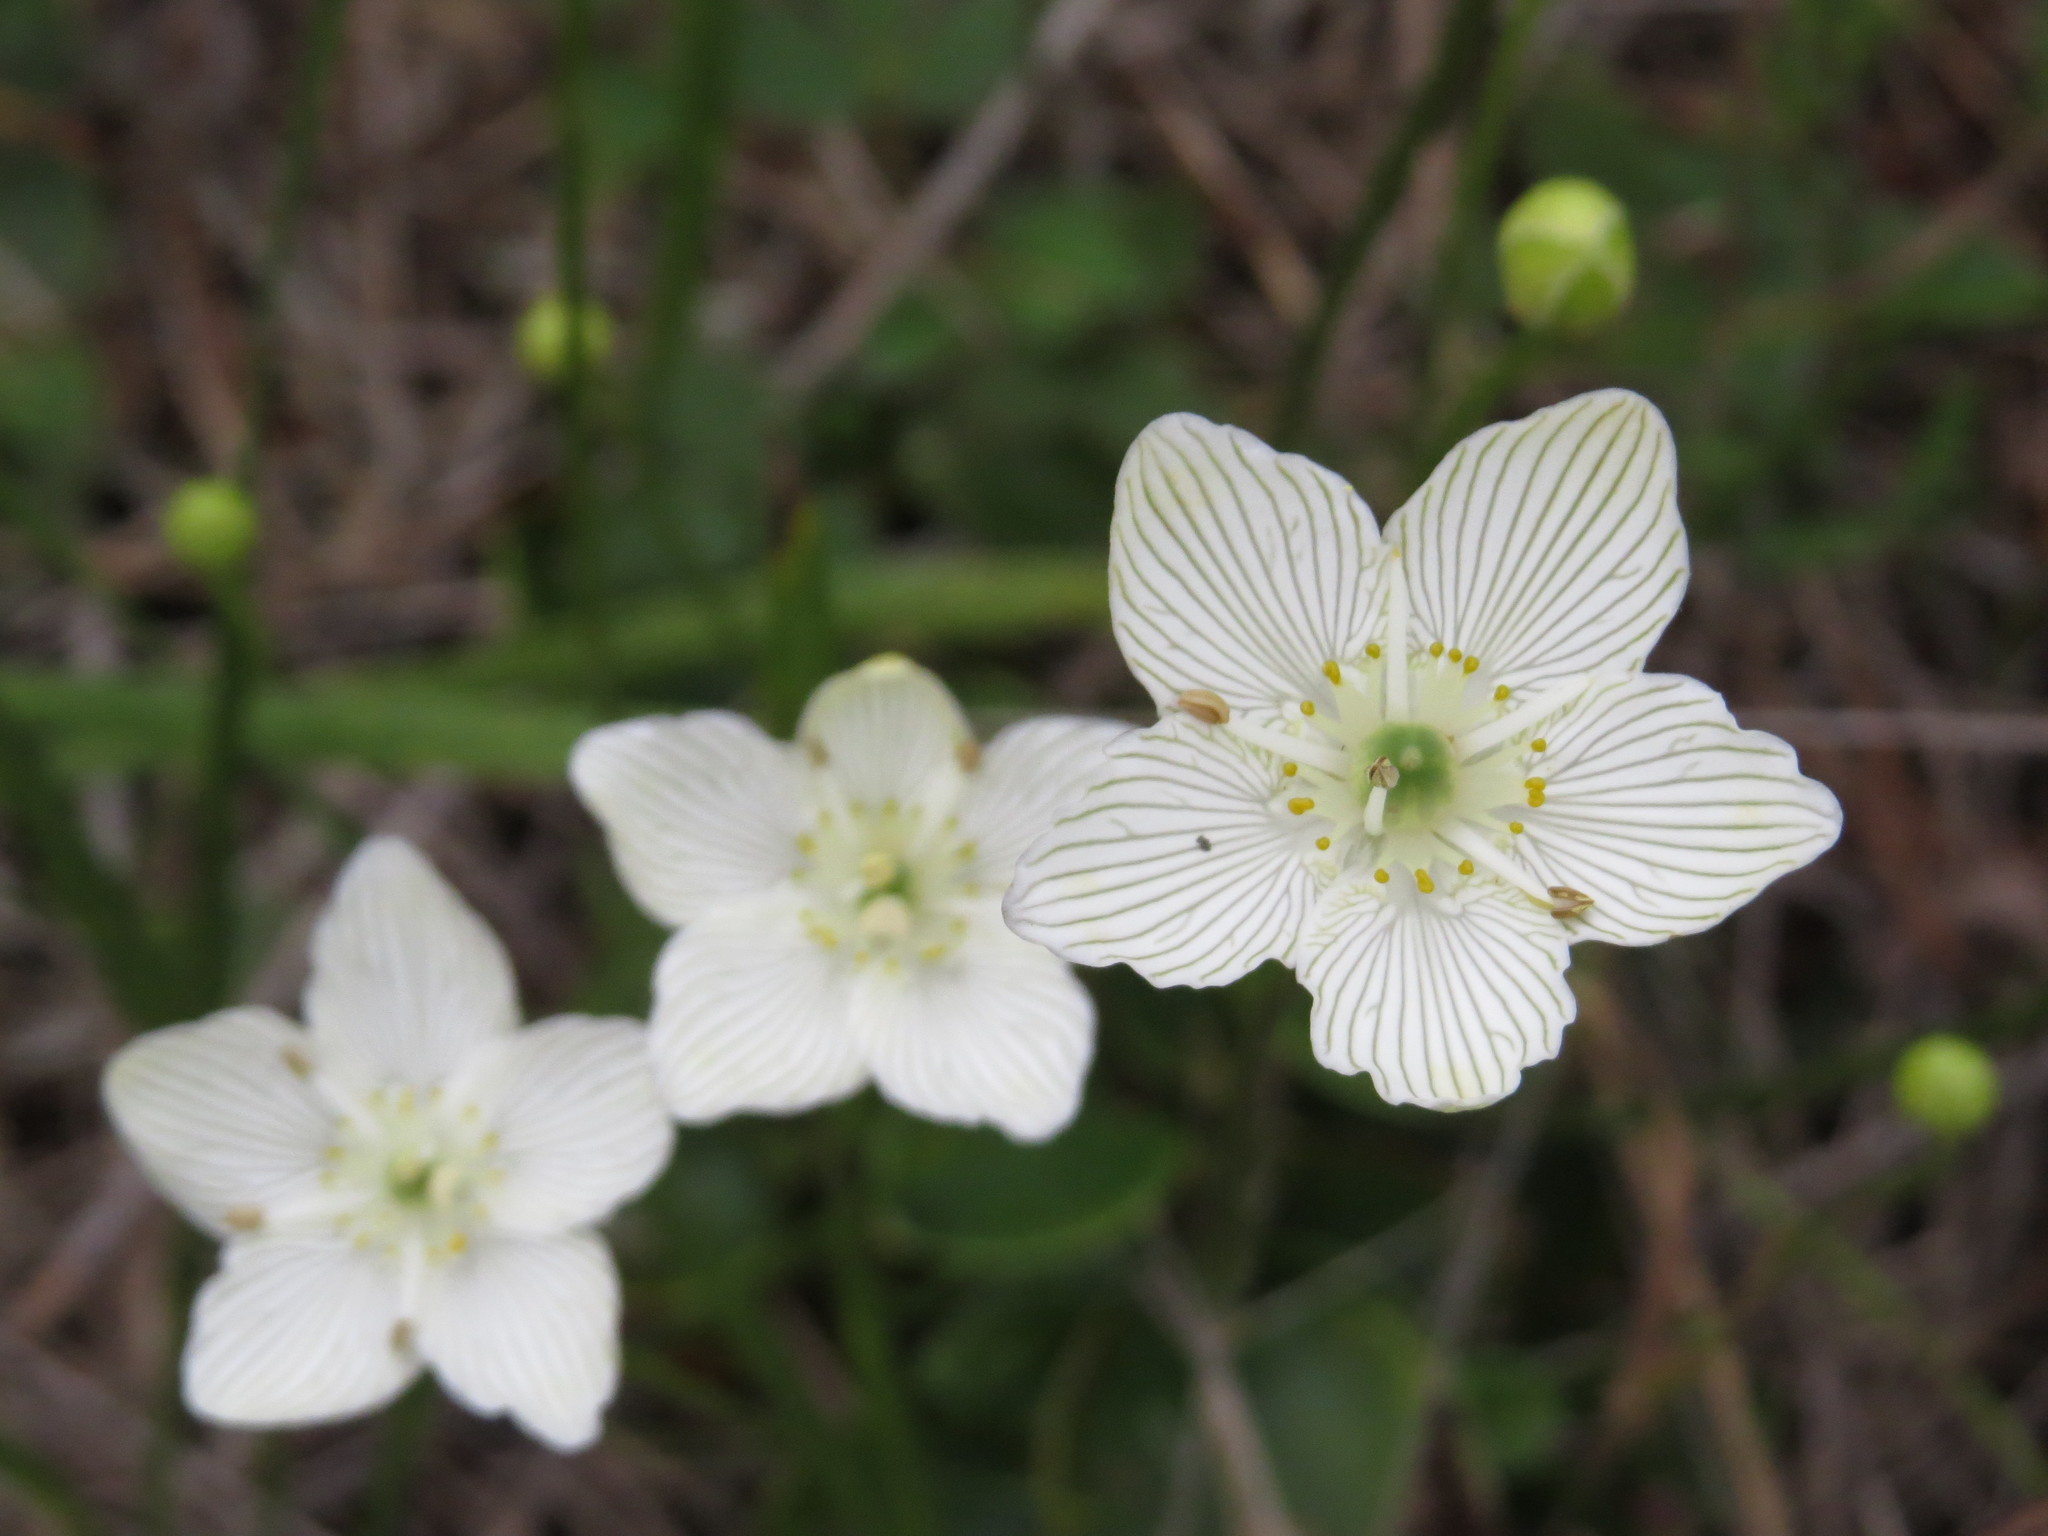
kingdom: Plantae
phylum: Tracheophyta
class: Magnoliopsida
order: Celastrales
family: Parnassiaceae
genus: Parnassia
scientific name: Parnassia glauca
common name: American grass-of-parnassus
